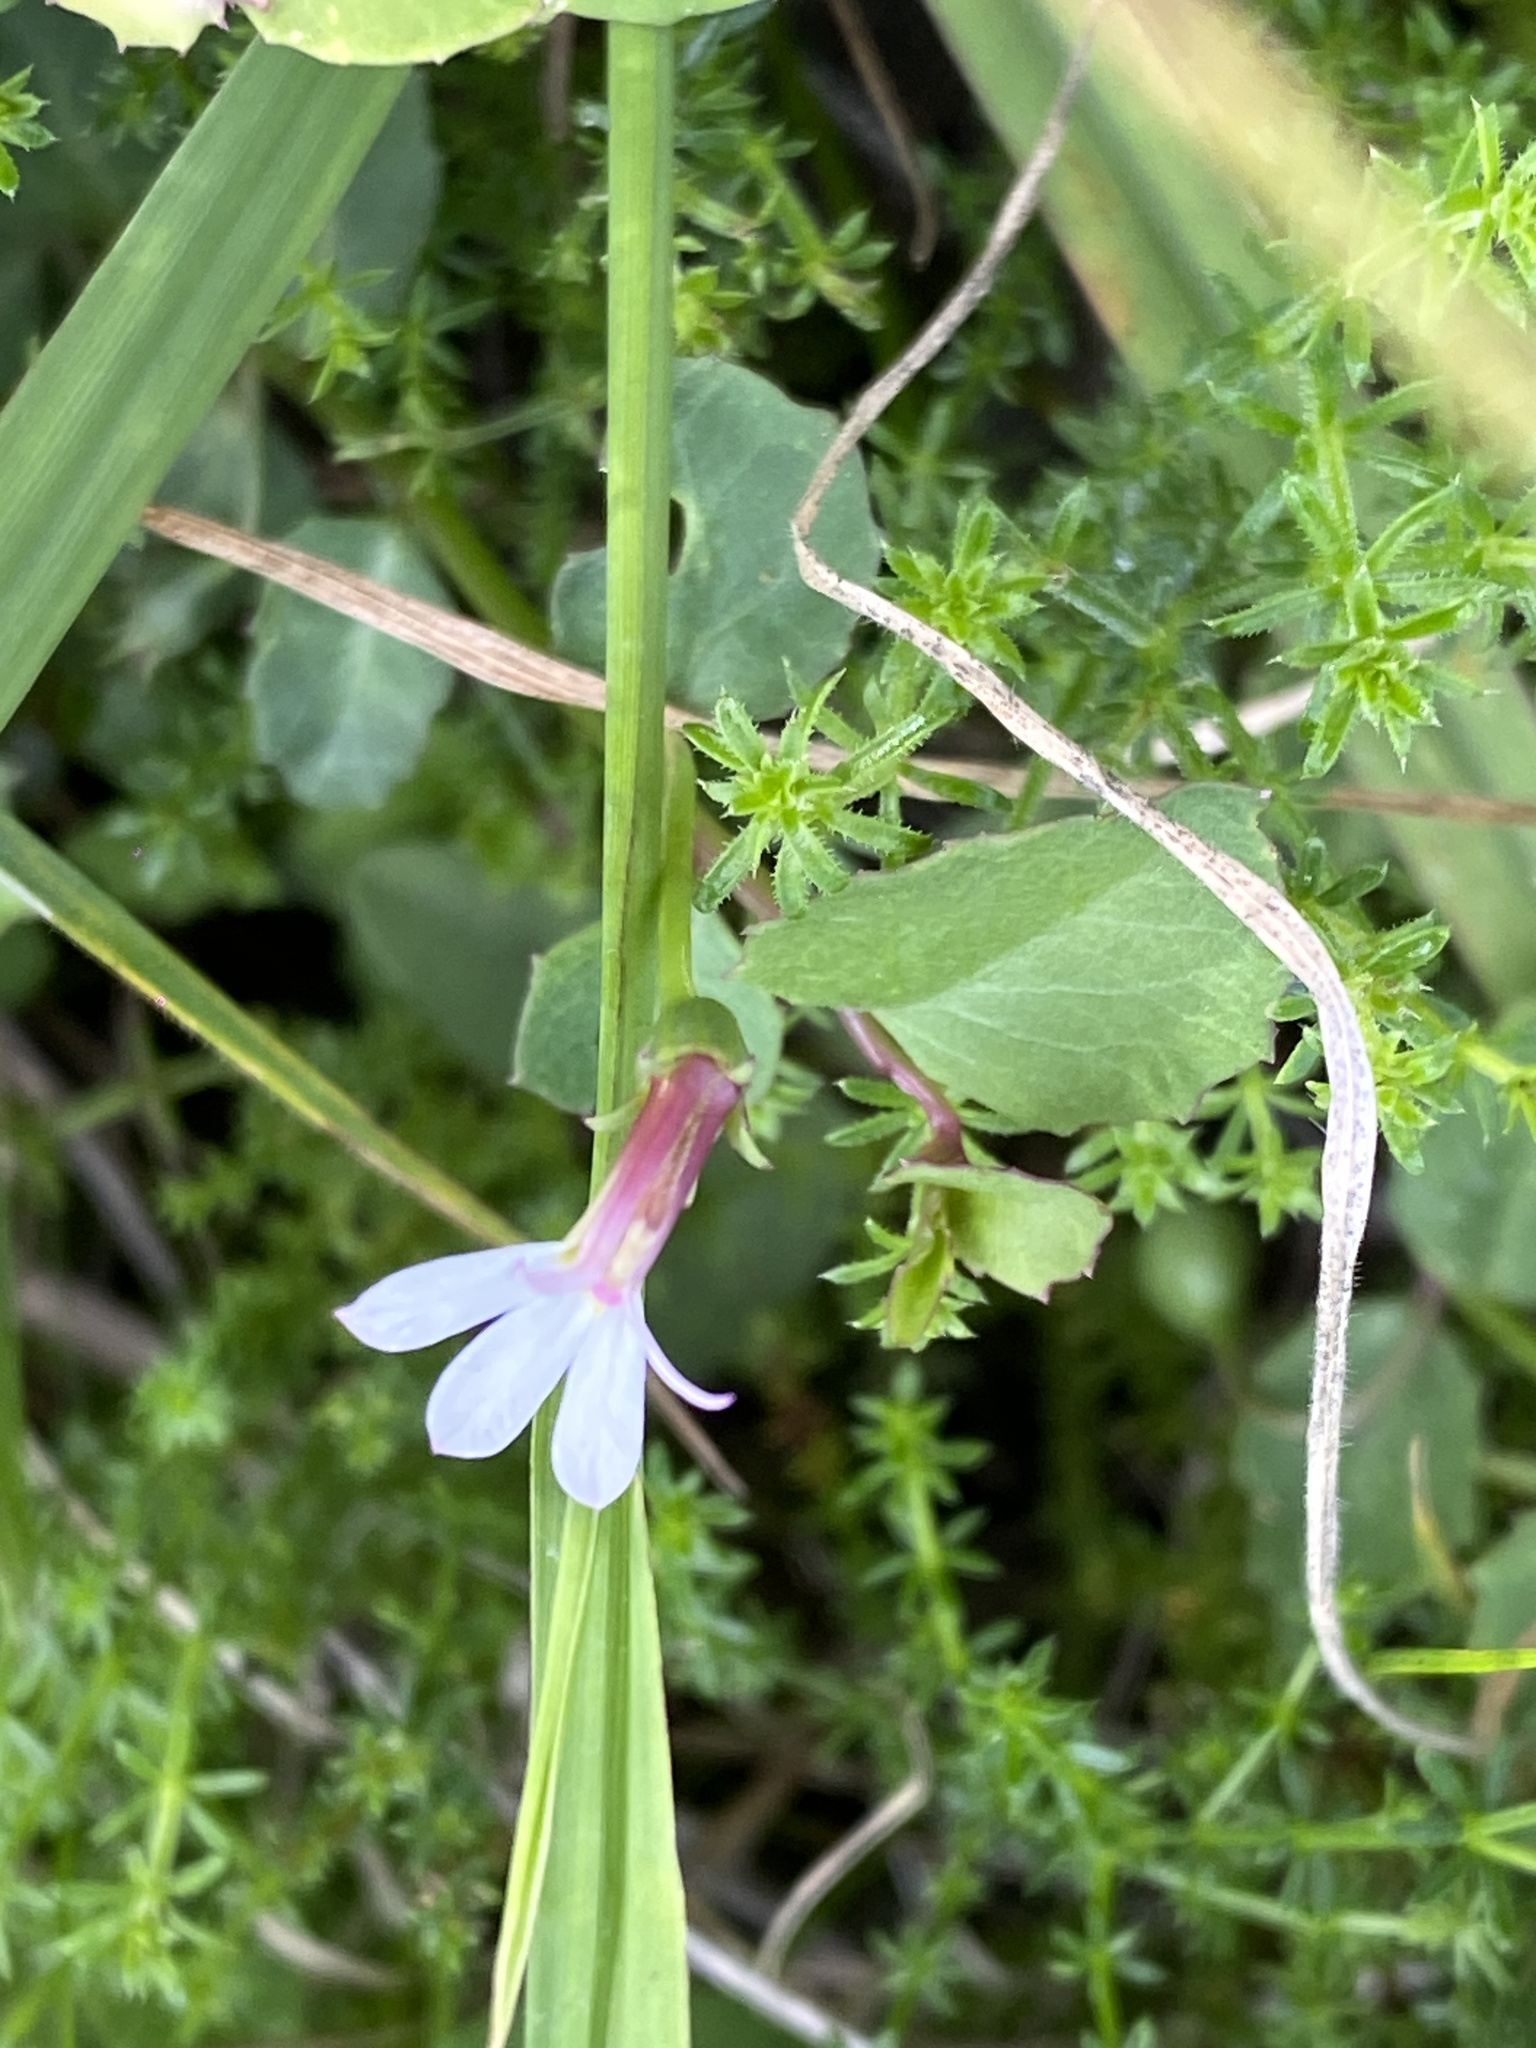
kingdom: Plantae
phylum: Tracheophyta
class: Magnoliopsida
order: Asterales
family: Campanulaceae
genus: Lobelia
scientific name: Lobelia purpurascens
